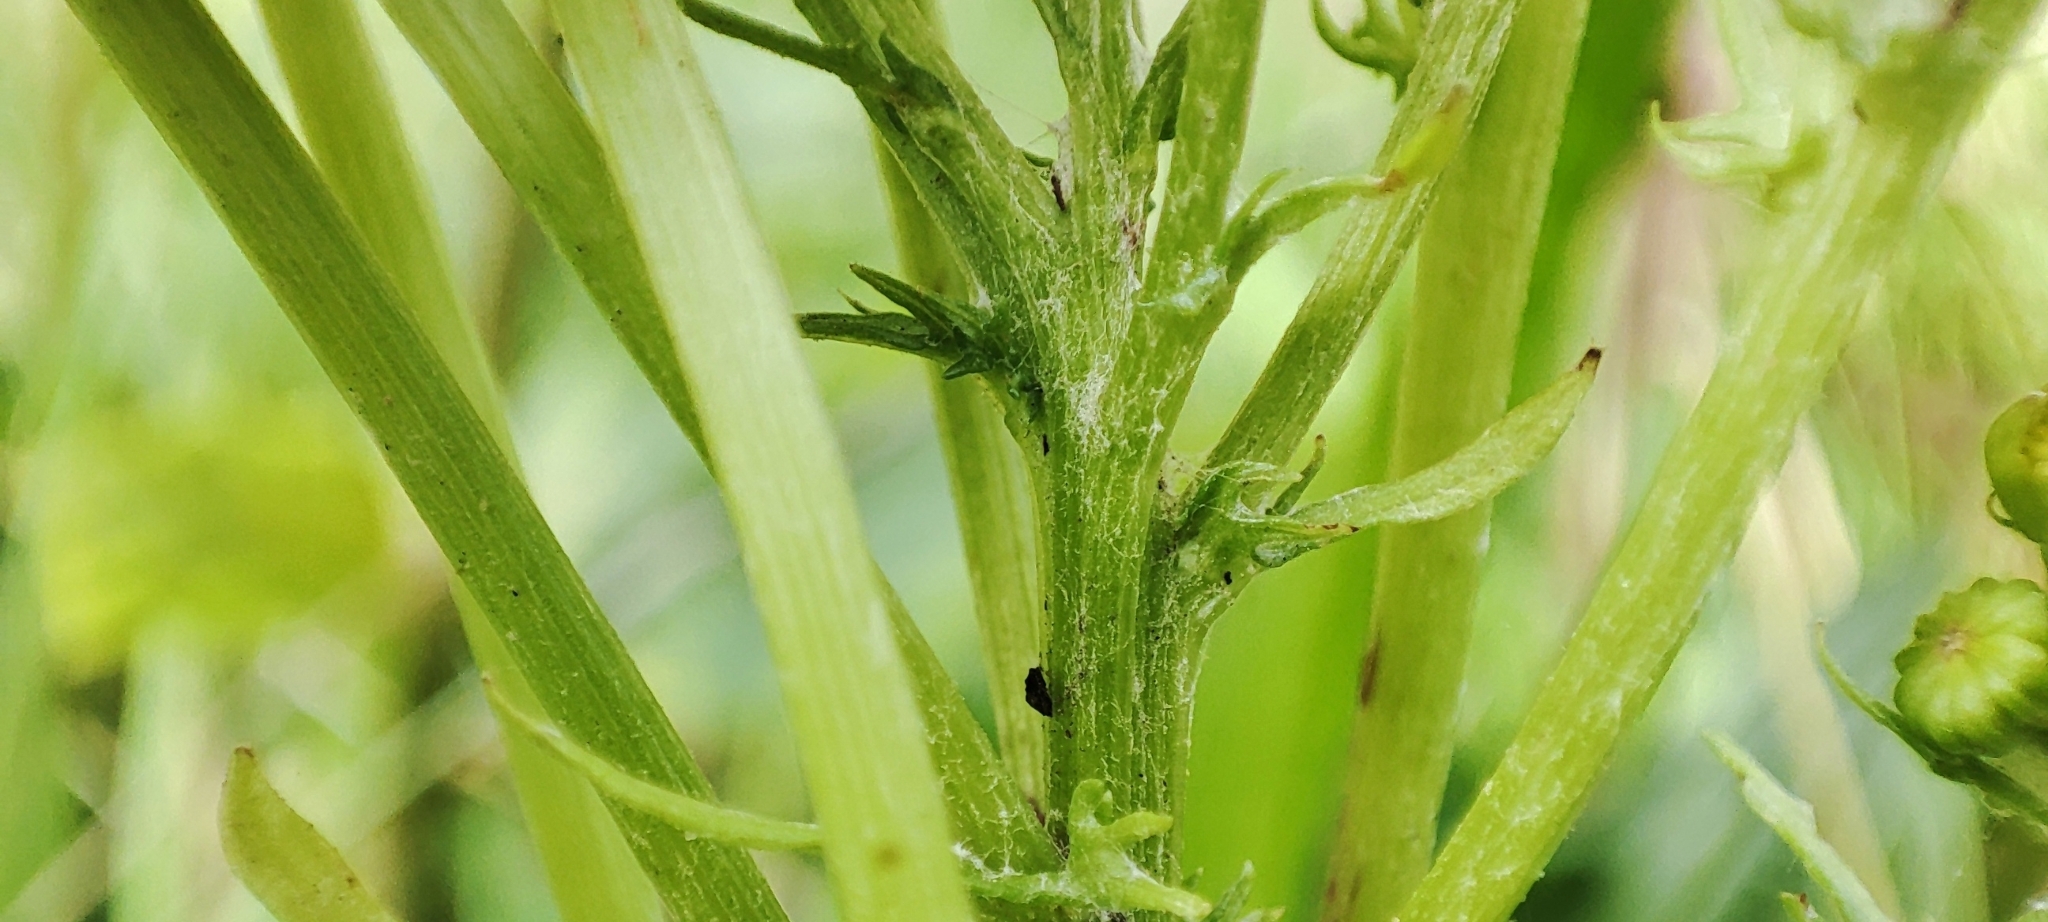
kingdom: Plantae
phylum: Tracheophyta
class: Magnoliopsida
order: Asterales
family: Asteraceae
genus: Jacobaea
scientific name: Jacobaea vulgaris
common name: Stinking willie
